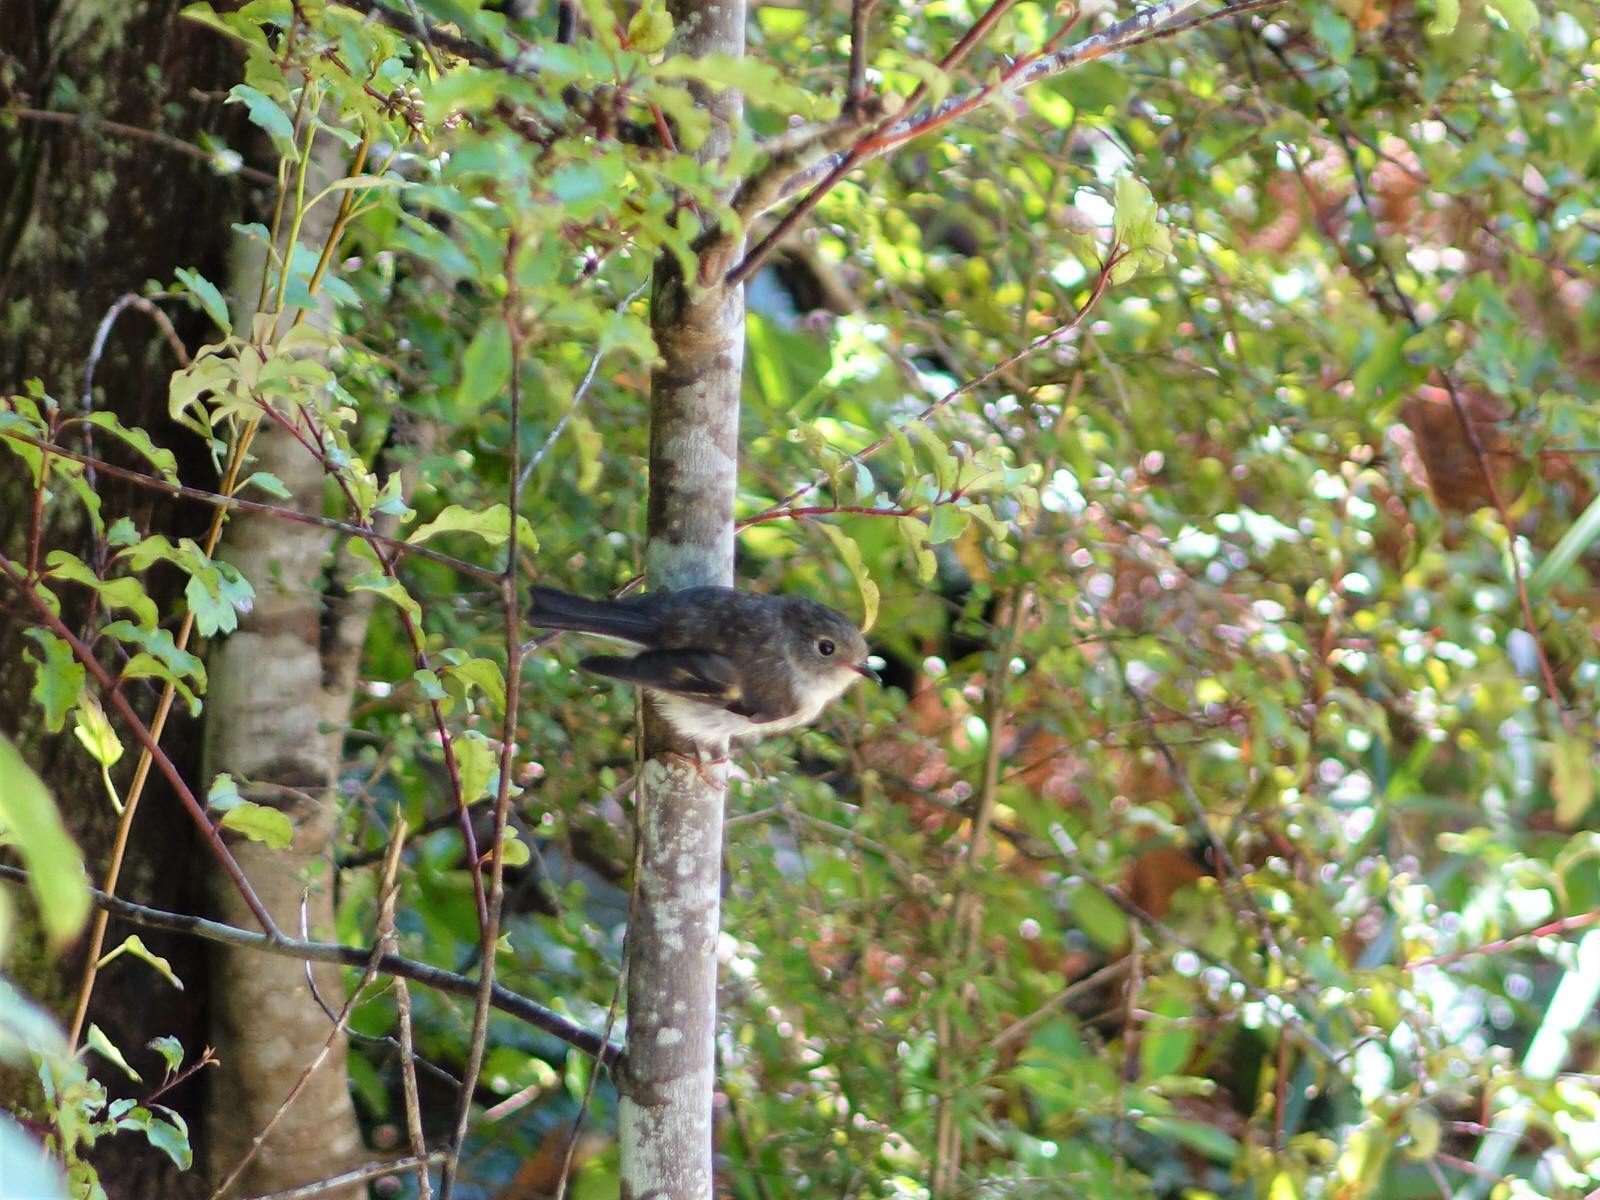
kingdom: Animalia
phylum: Chordata
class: Aves
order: Passeriformes
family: Petroicidae
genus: Petroica
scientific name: Petroica macrocephala
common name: Tomtit
